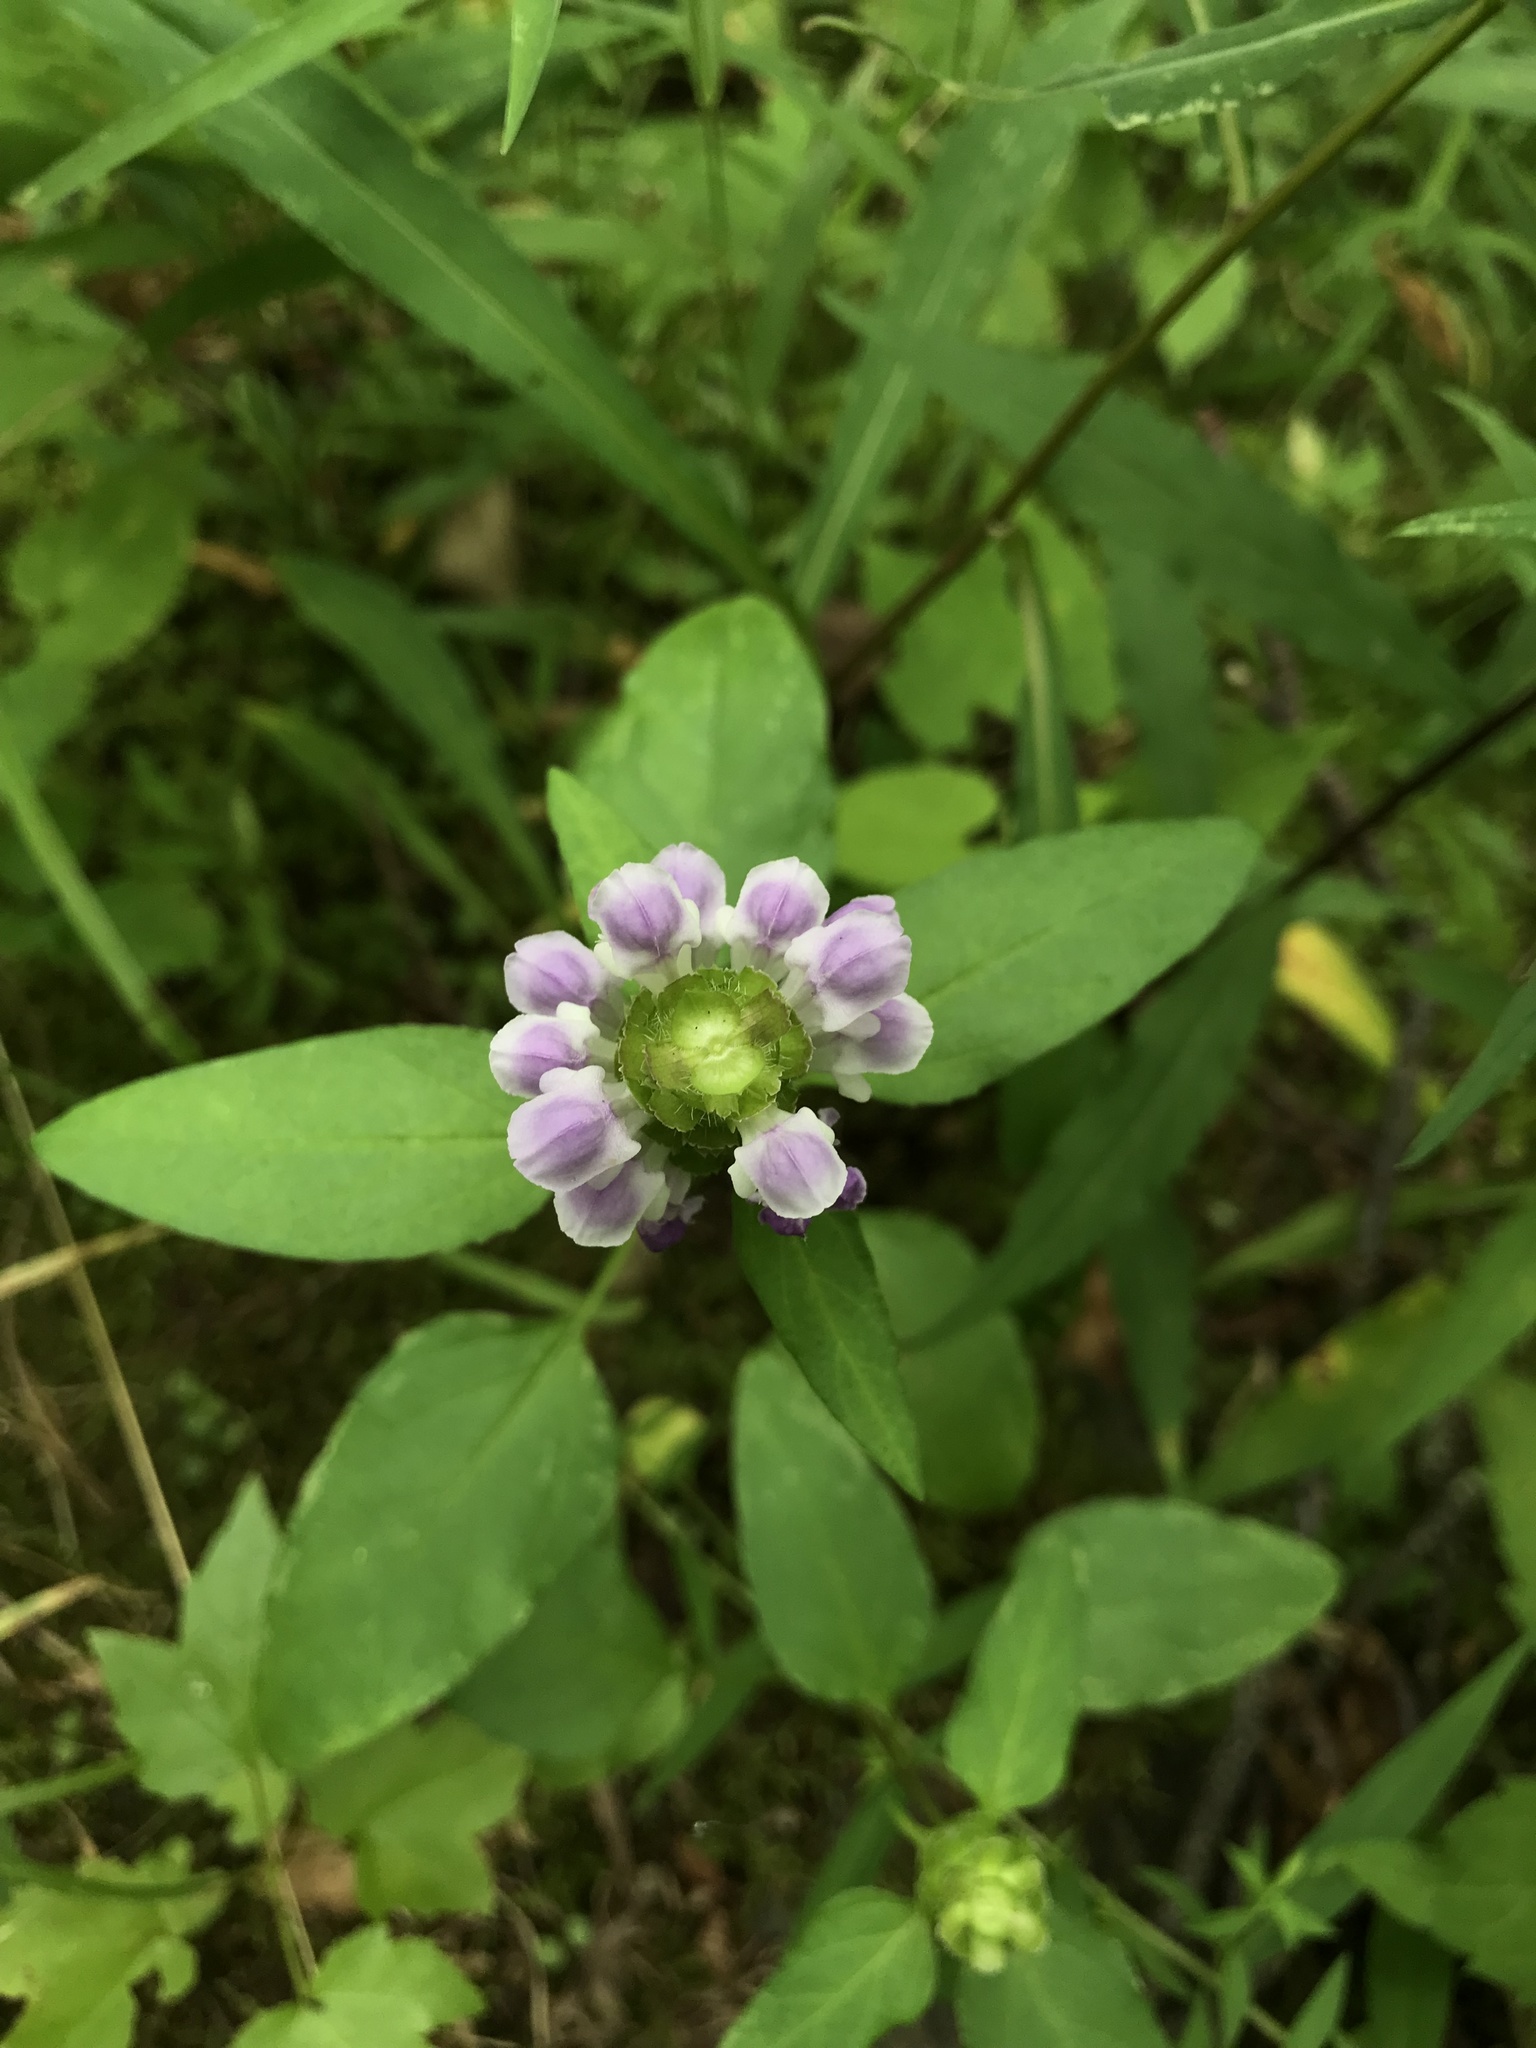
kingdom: Plantae
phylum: Tracheophyta
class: Magnoliopsida
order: Lamiales
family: Lamiaceae
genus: Prunella
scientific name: Prunella vulgaris
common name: Heal-all
